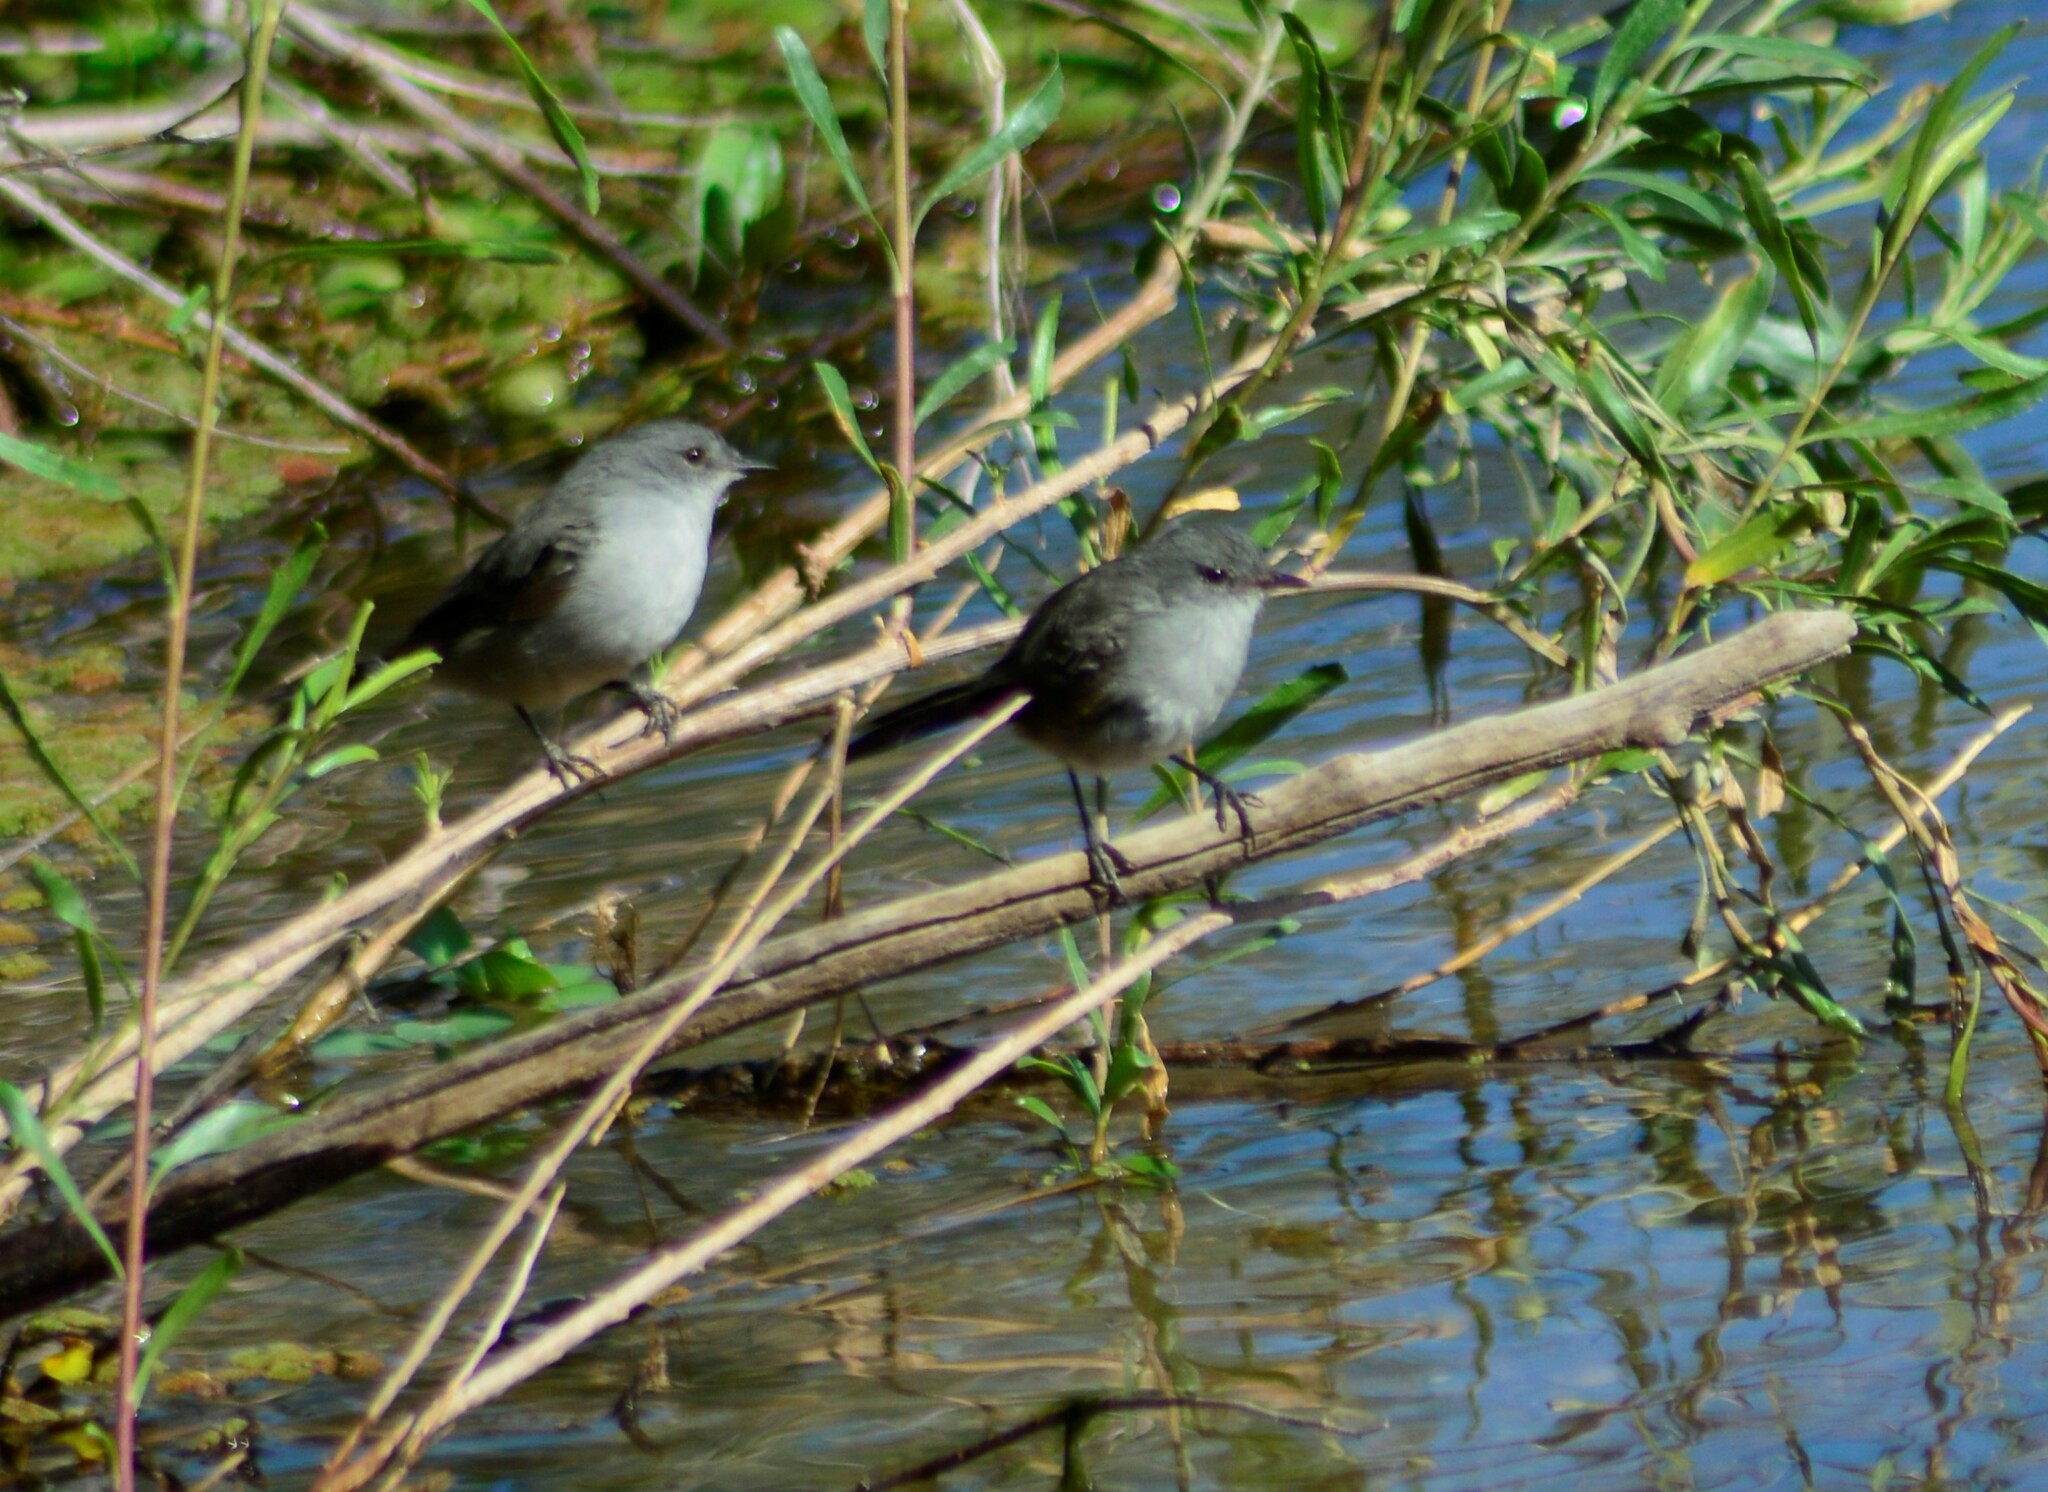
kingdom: Animalia
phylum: Chordata
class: Aves
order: Passeriformes
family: Tyrannidae
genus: Serpophaga
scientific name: Serpophaga nigricans
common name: Sooty tyrannulet
